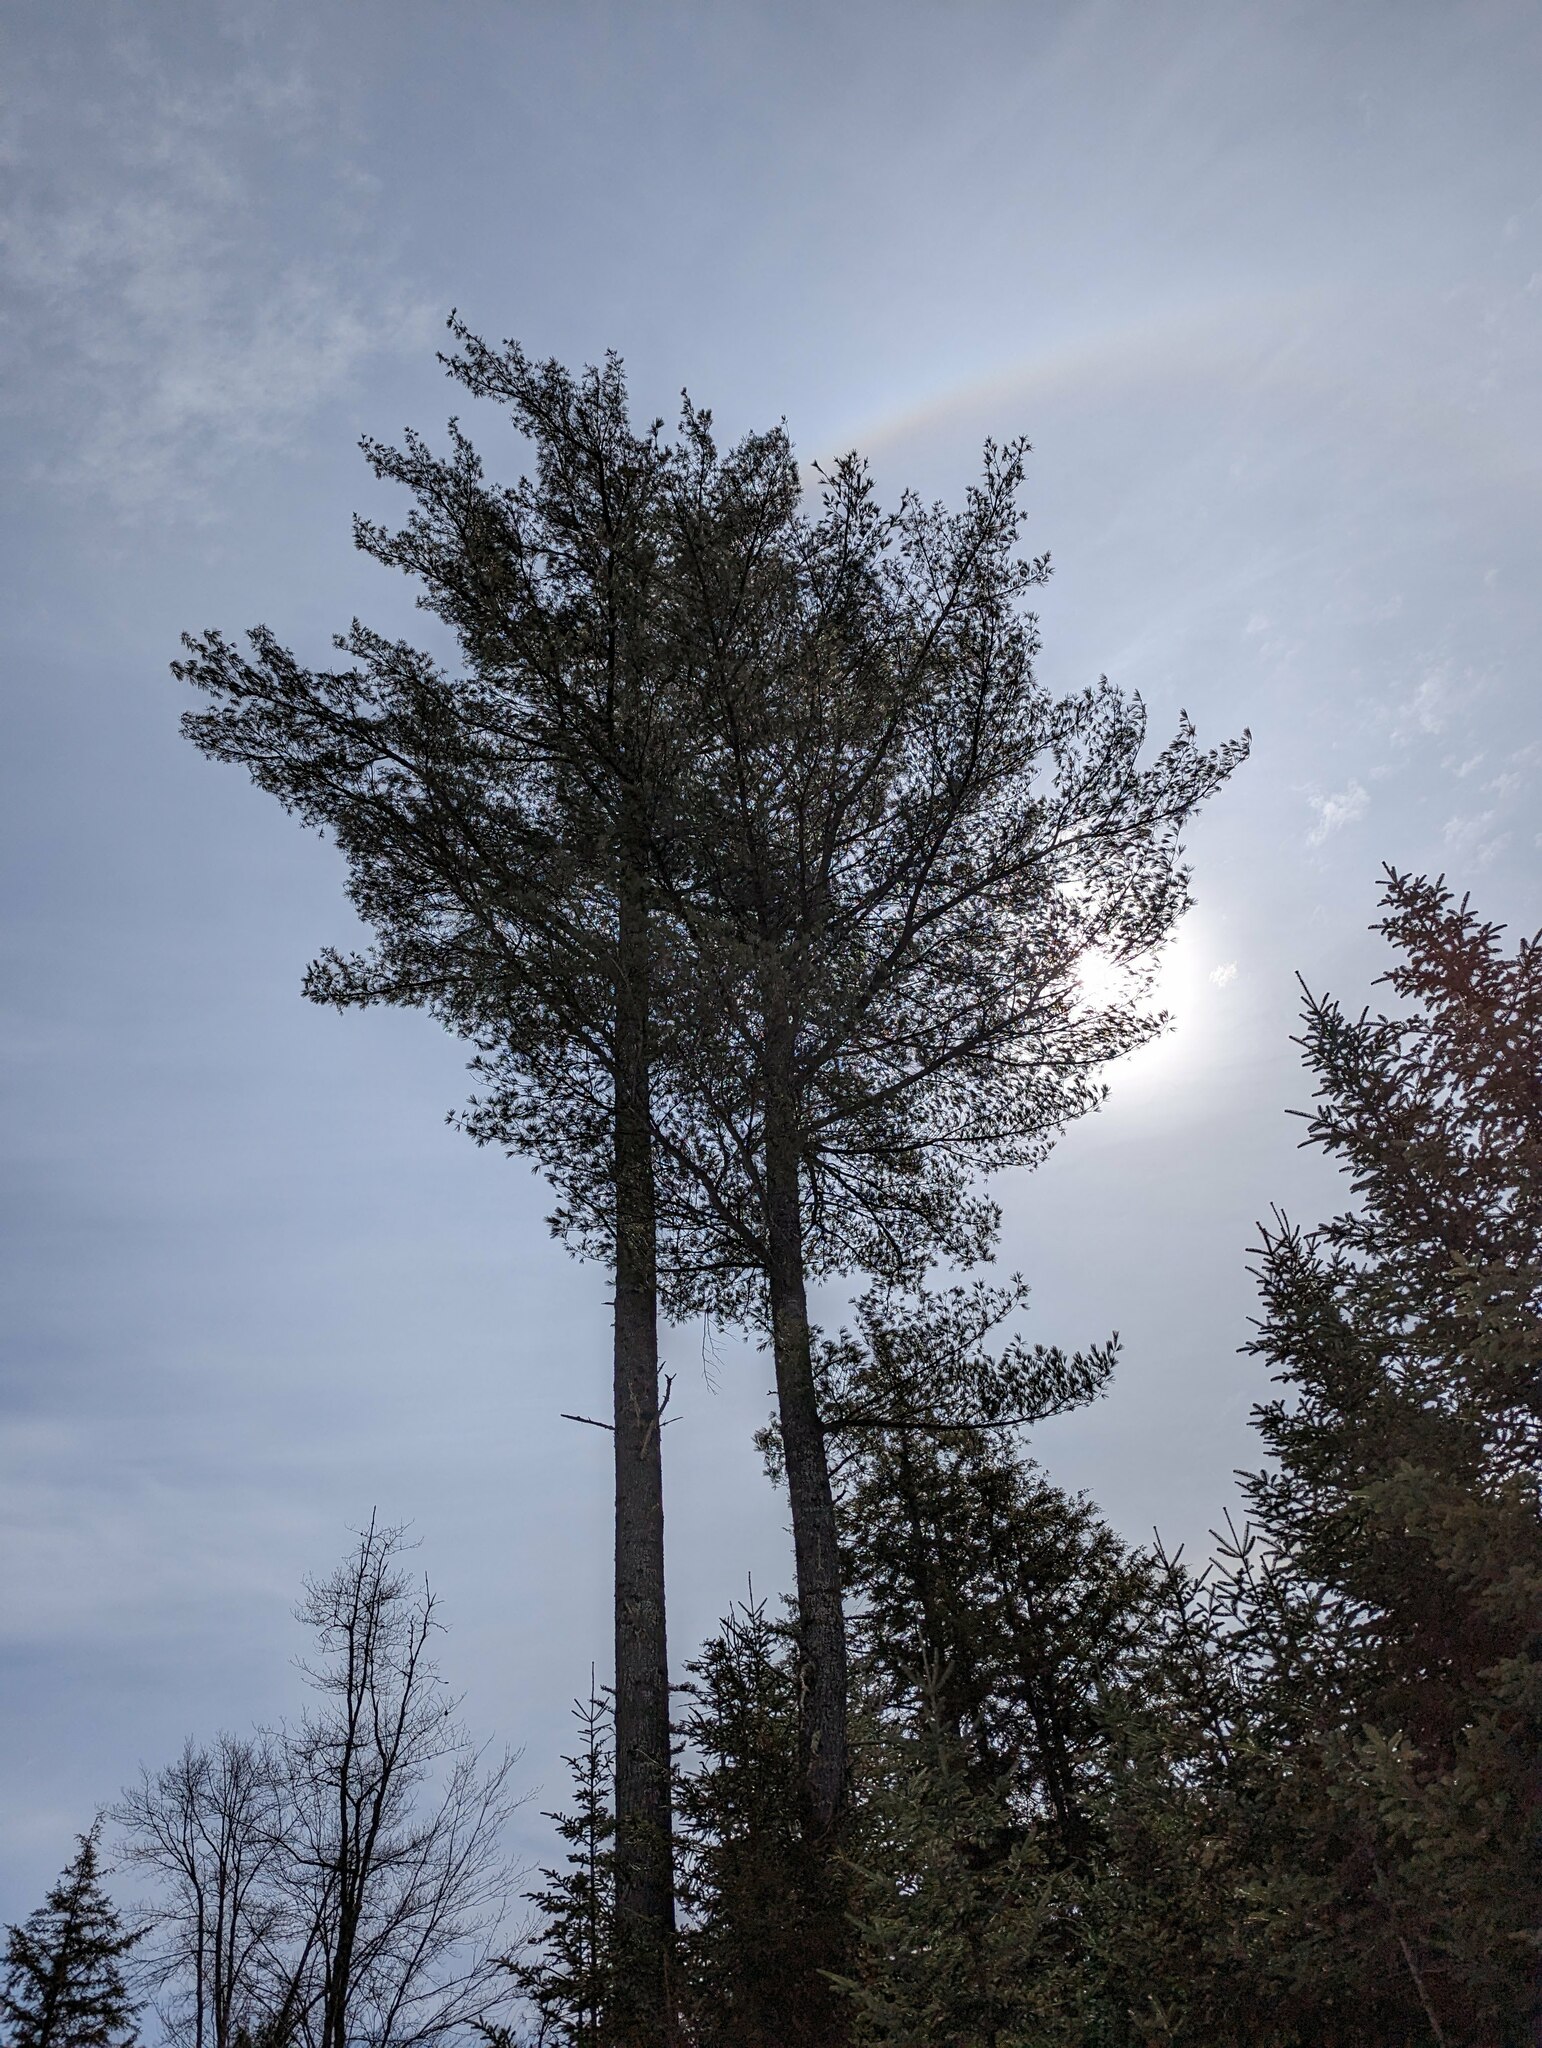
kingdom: Plantae
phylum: Tracheophyta
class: Pinopsida
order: Pinales
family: Pinaceae
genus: Pinus
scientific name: Pinus strobus
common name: Weymouth pine
